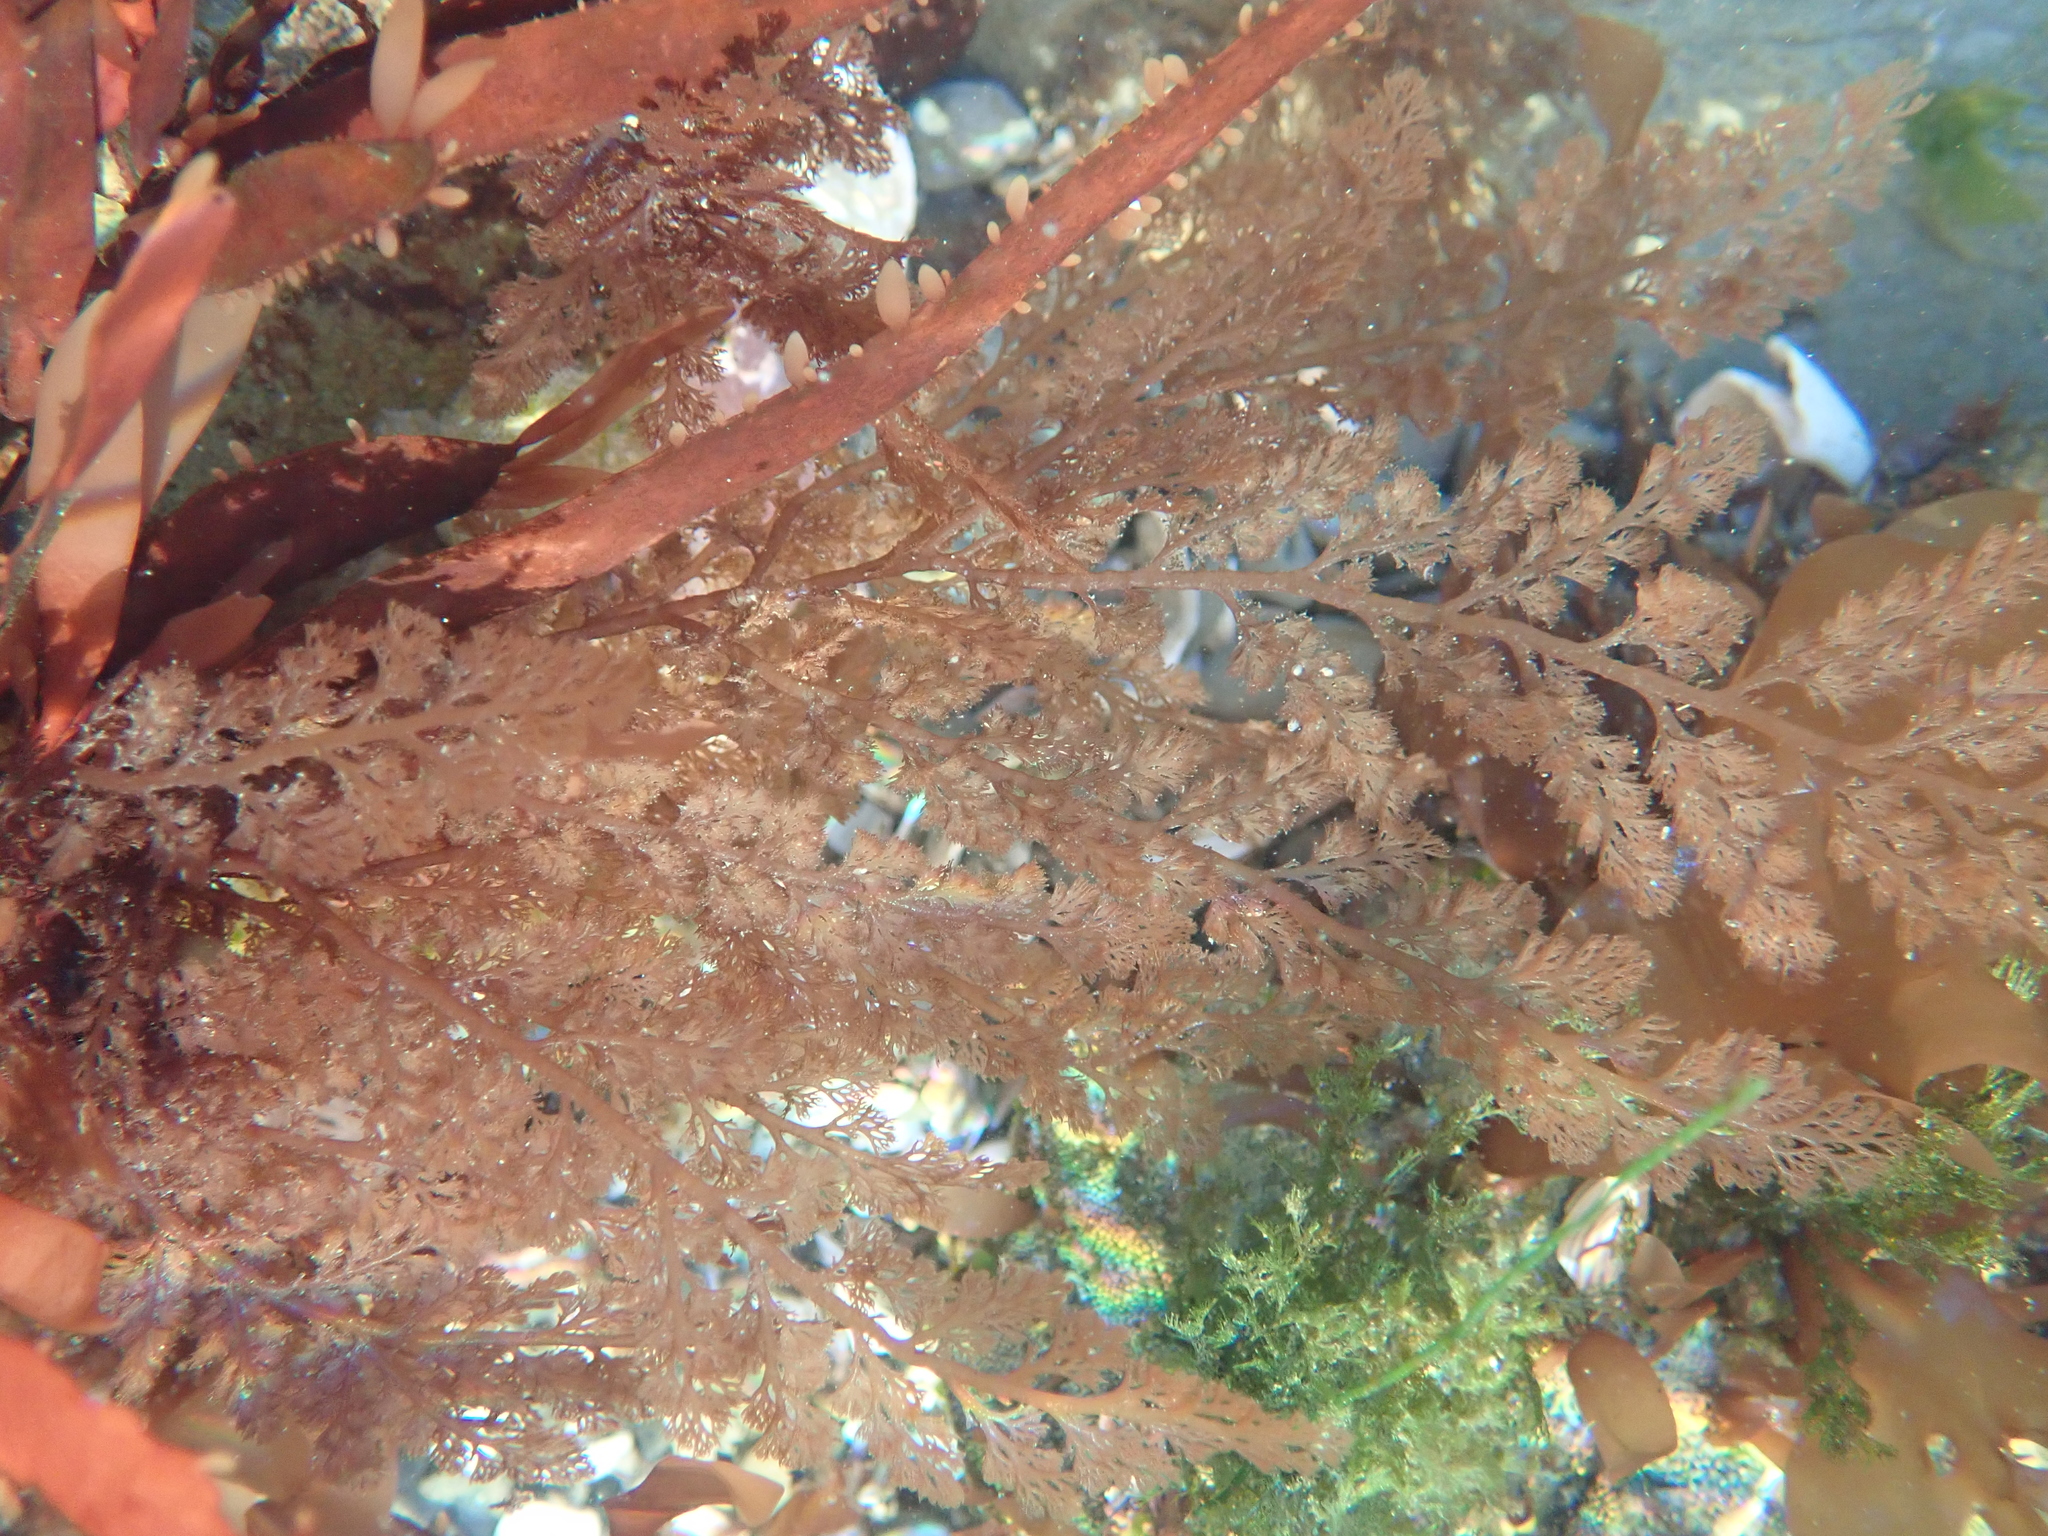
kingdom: Plantae
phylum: Rhodophyta
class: Florideophyceae
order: Ceramiales
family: Ceramiaceae
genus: Microcladia
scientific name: Microcladia coulteri
